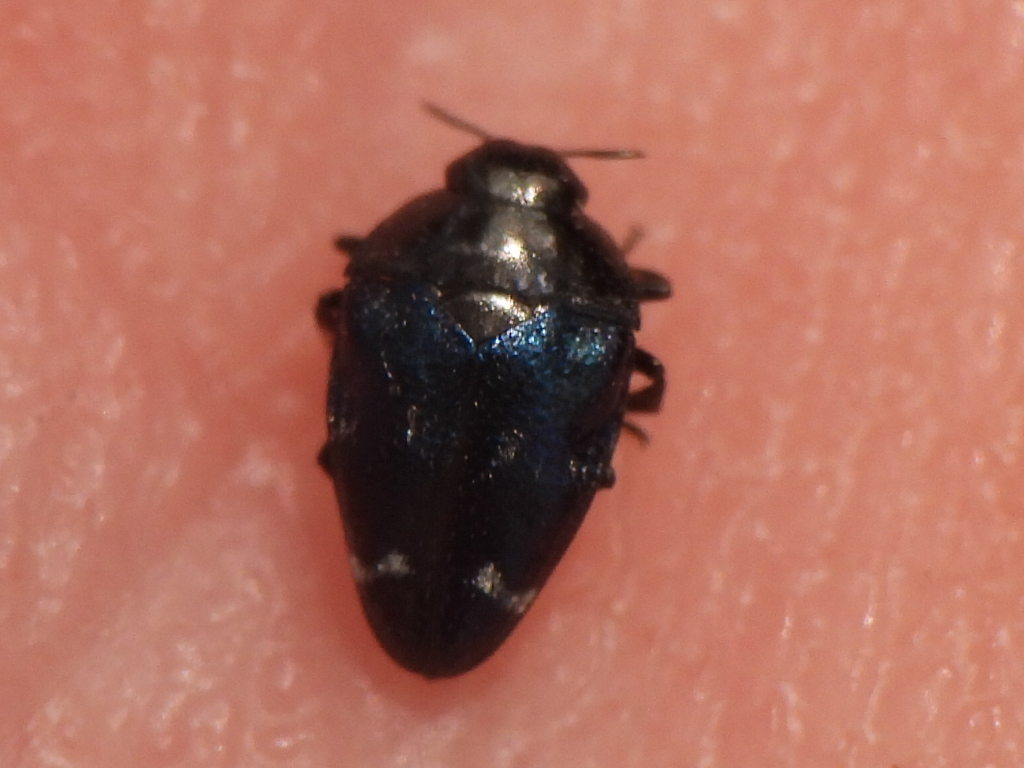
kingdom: Animalia
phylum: Arthropoda
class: Insecta
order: Coleoptera
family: Buprestidae
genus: Pachyschelus
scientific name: Pachyschelus purpureus
